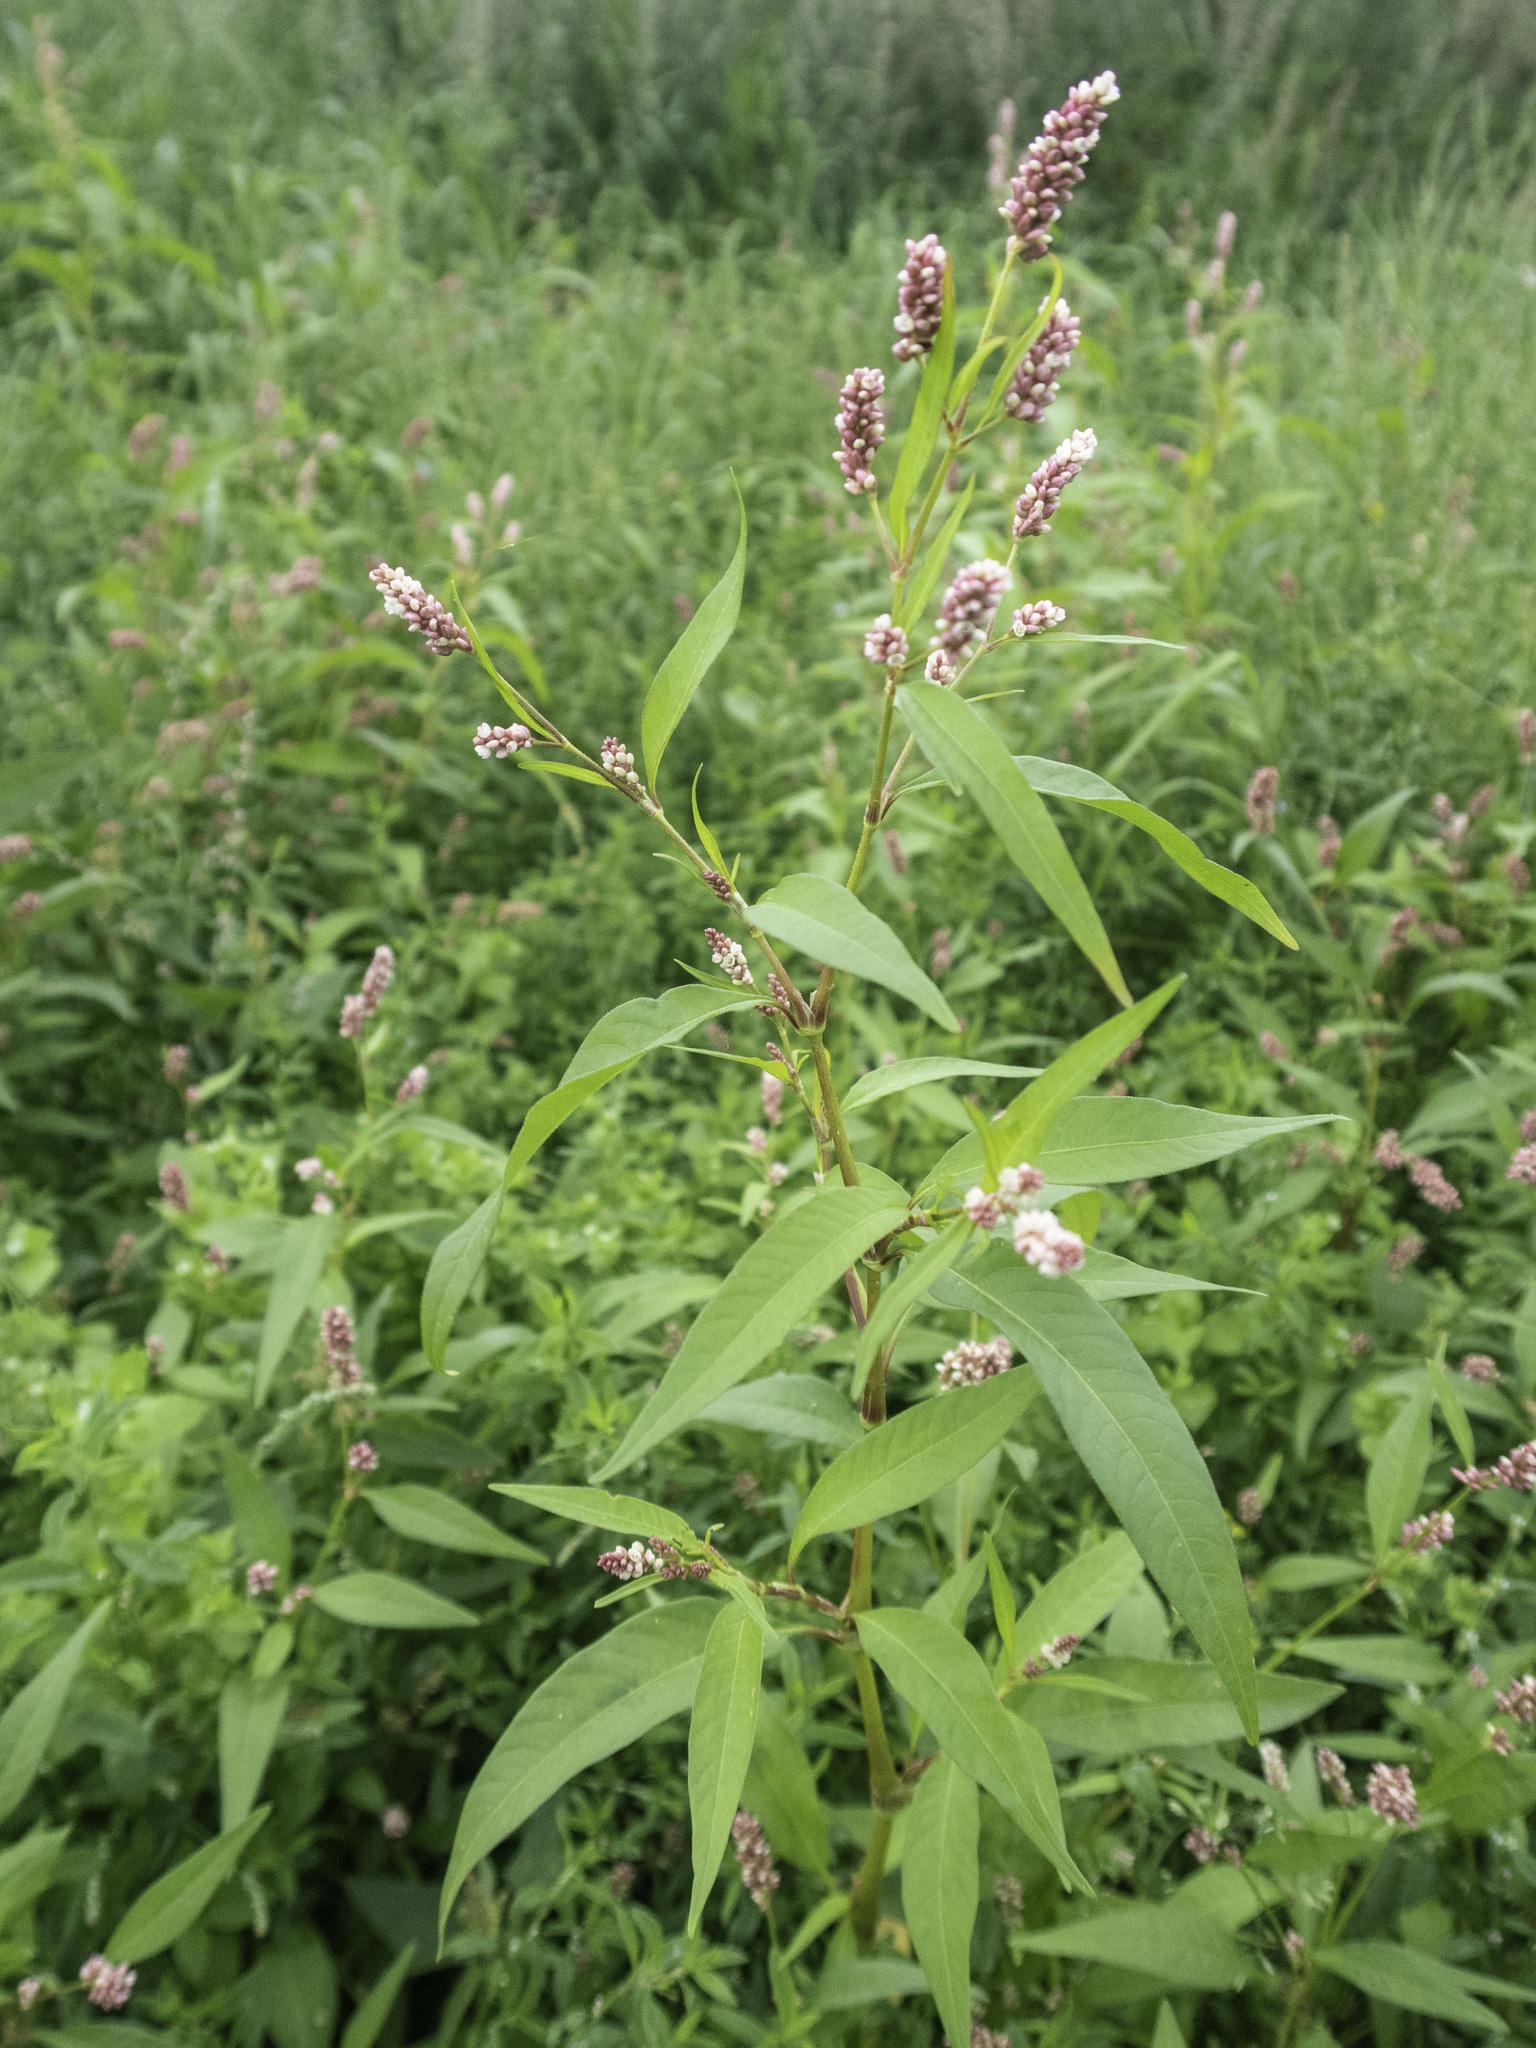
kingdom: Plantae
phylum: Tracheophyta
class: Magnoliopsida
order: Caryophyllales
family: Polygonaceae
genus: Persicaria
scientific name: Persicaria maculosa
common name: Redshank
